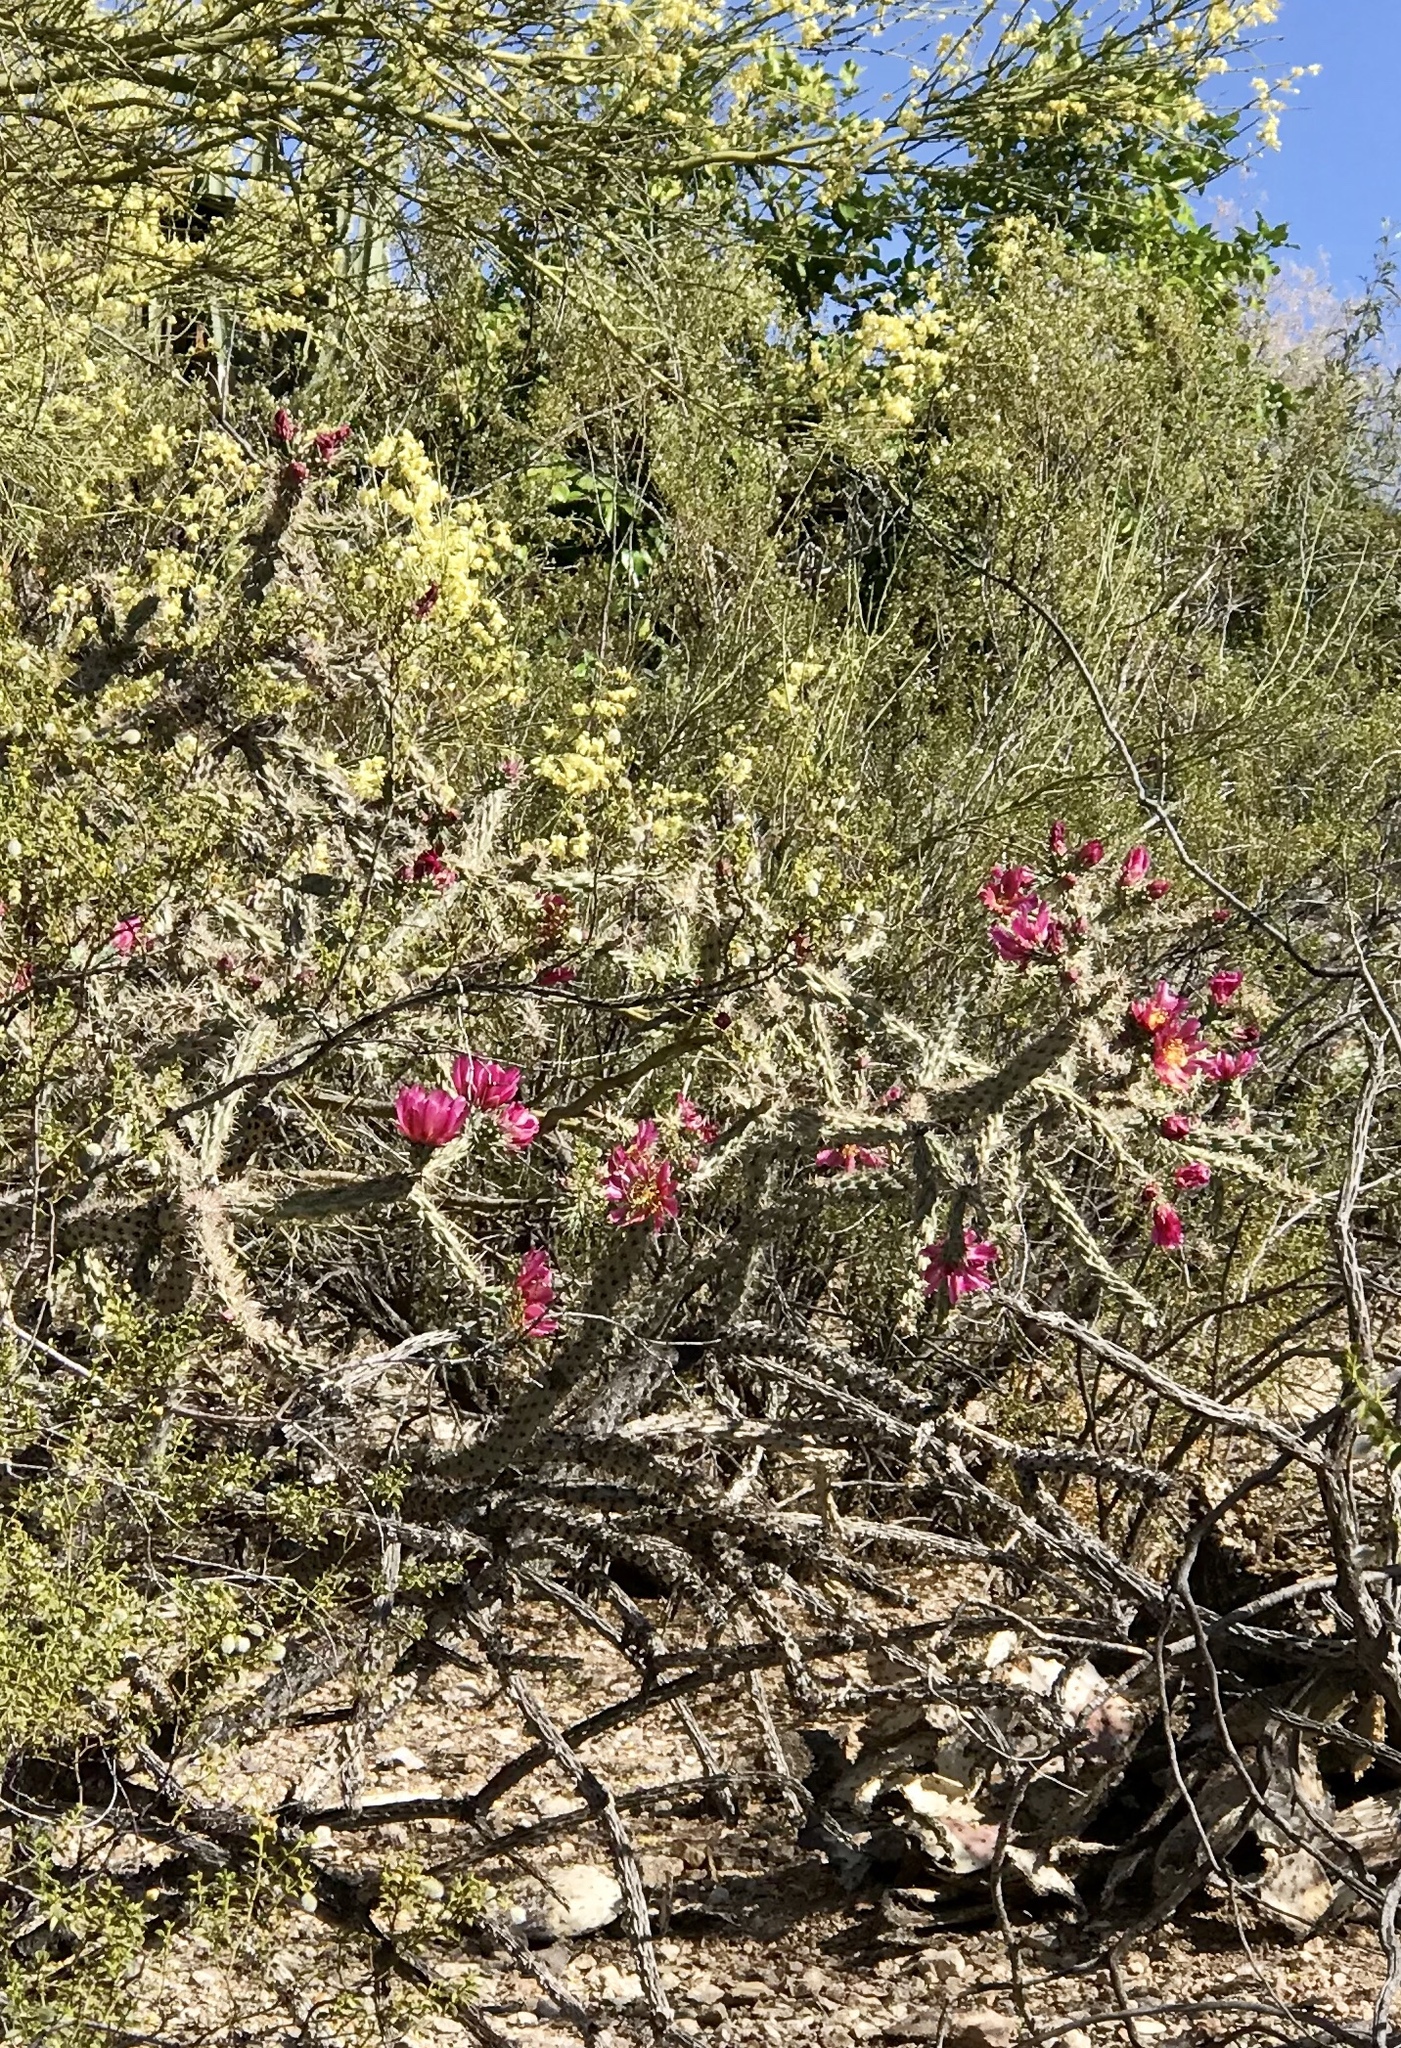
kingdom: Plantae
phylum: Tracheophyta
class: Magnoliopsida
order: Caryophyllales
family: Cactaceae
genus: Cylindropuntia
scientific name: Cylindropuntia thurberi
